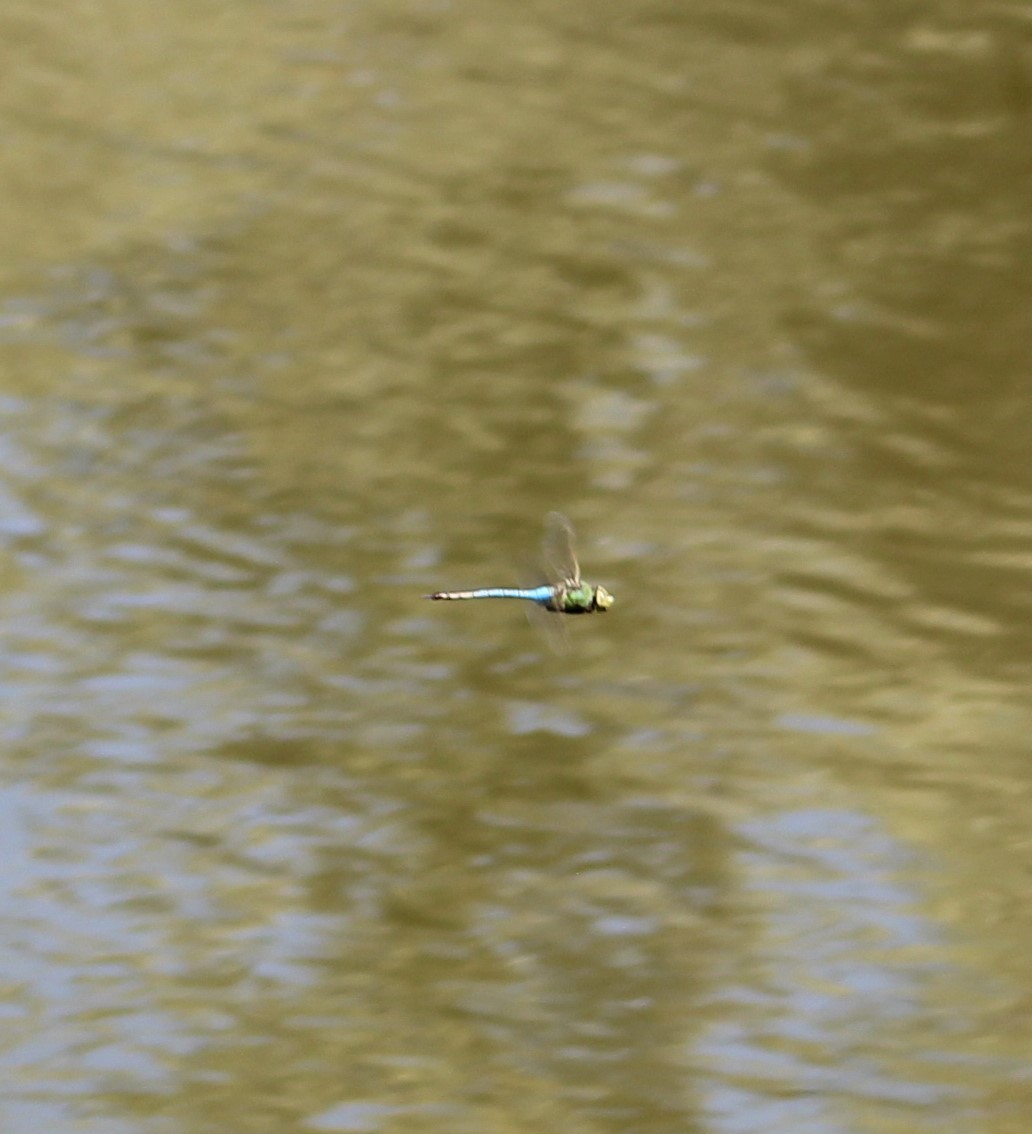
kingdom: Animalia
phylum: Arthropoda
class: Insecta
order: Odonata
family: Aeshnidae
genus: Anax
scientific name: Anax junius
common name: Common green darner
